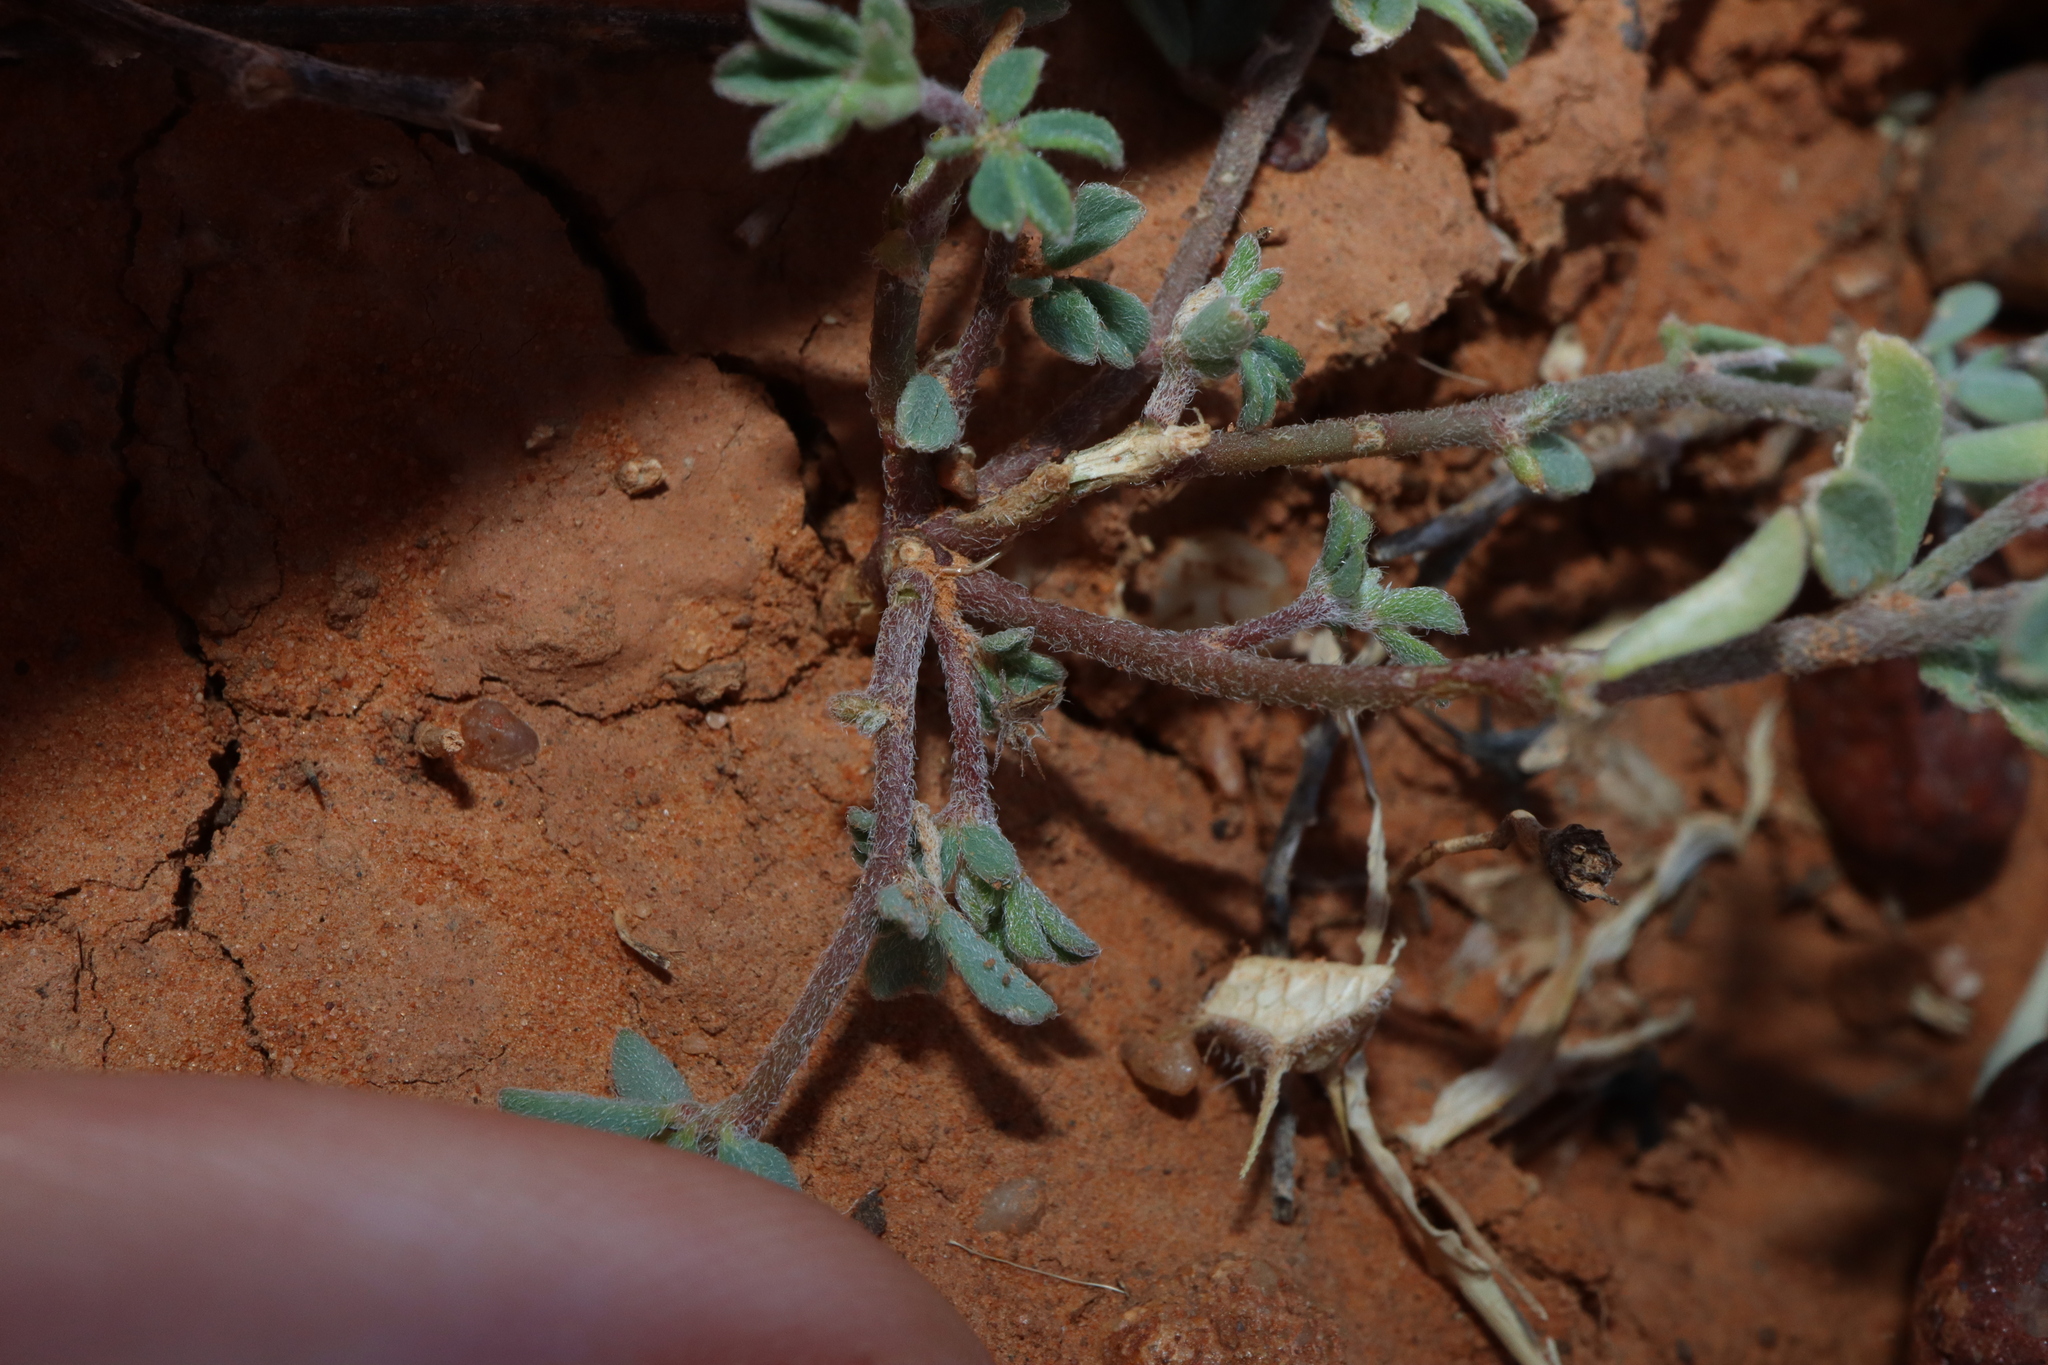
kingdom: Plantae
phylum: Tracheophyta
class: Magnoliopsida
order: Fabales
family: Fabaceae
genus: Lotus
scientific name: Lotus cruentus
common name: Red bird's-foot trefoil
